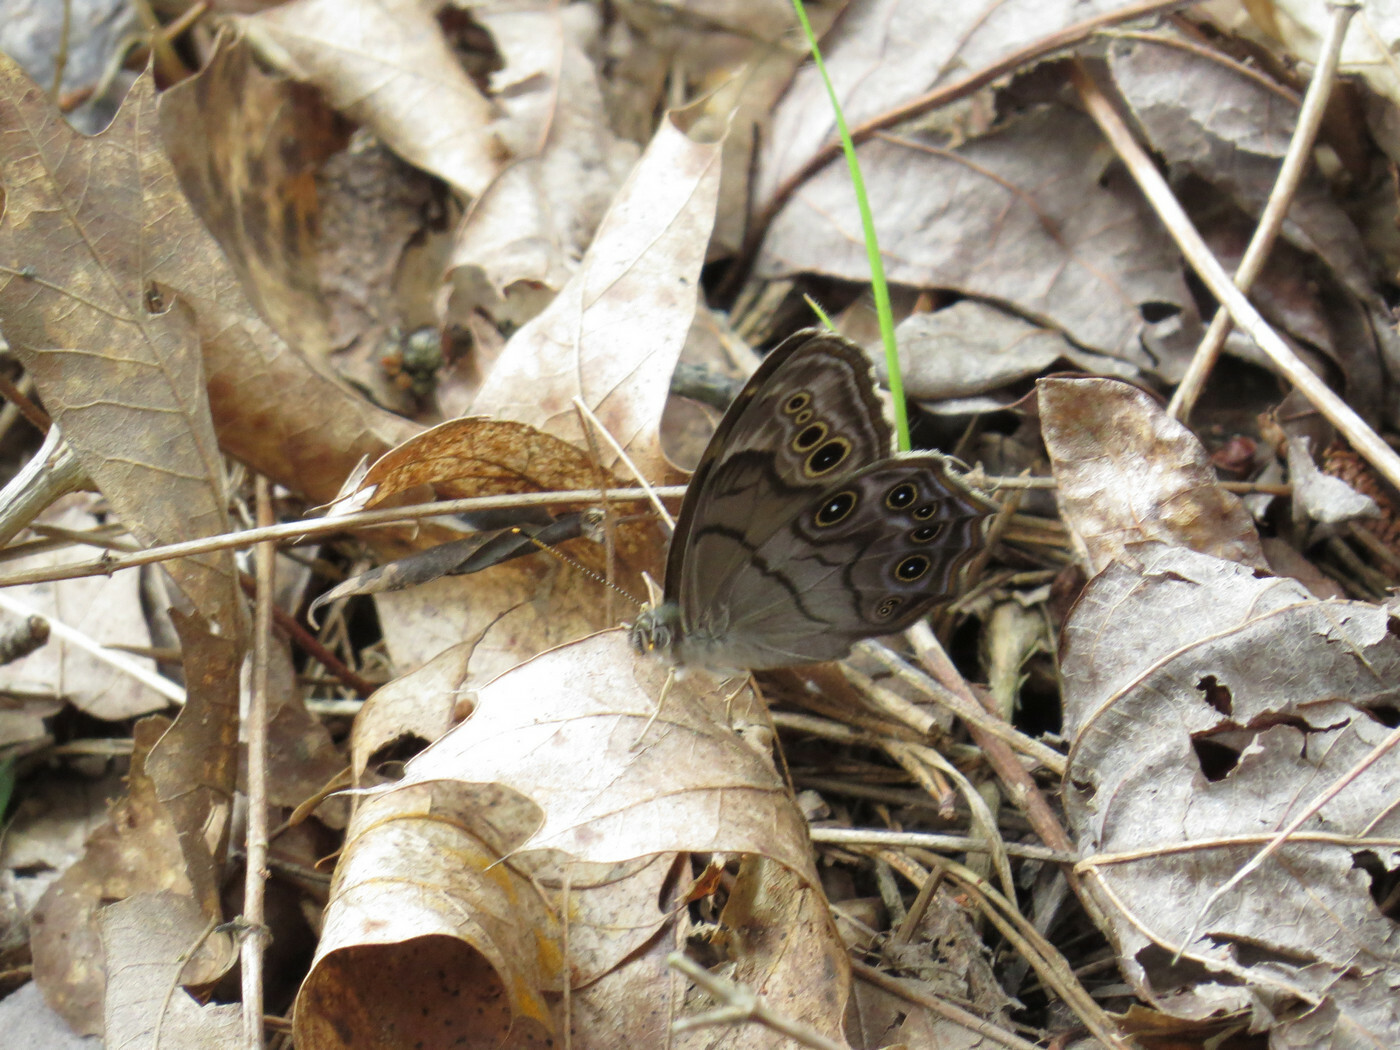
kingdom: Animalia
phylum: Arthropoda
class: Insecta
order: Lepidoptera
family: Nymphalidae
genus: Lethe
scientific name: Lethe anthedon
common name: Northern pearly-eye
